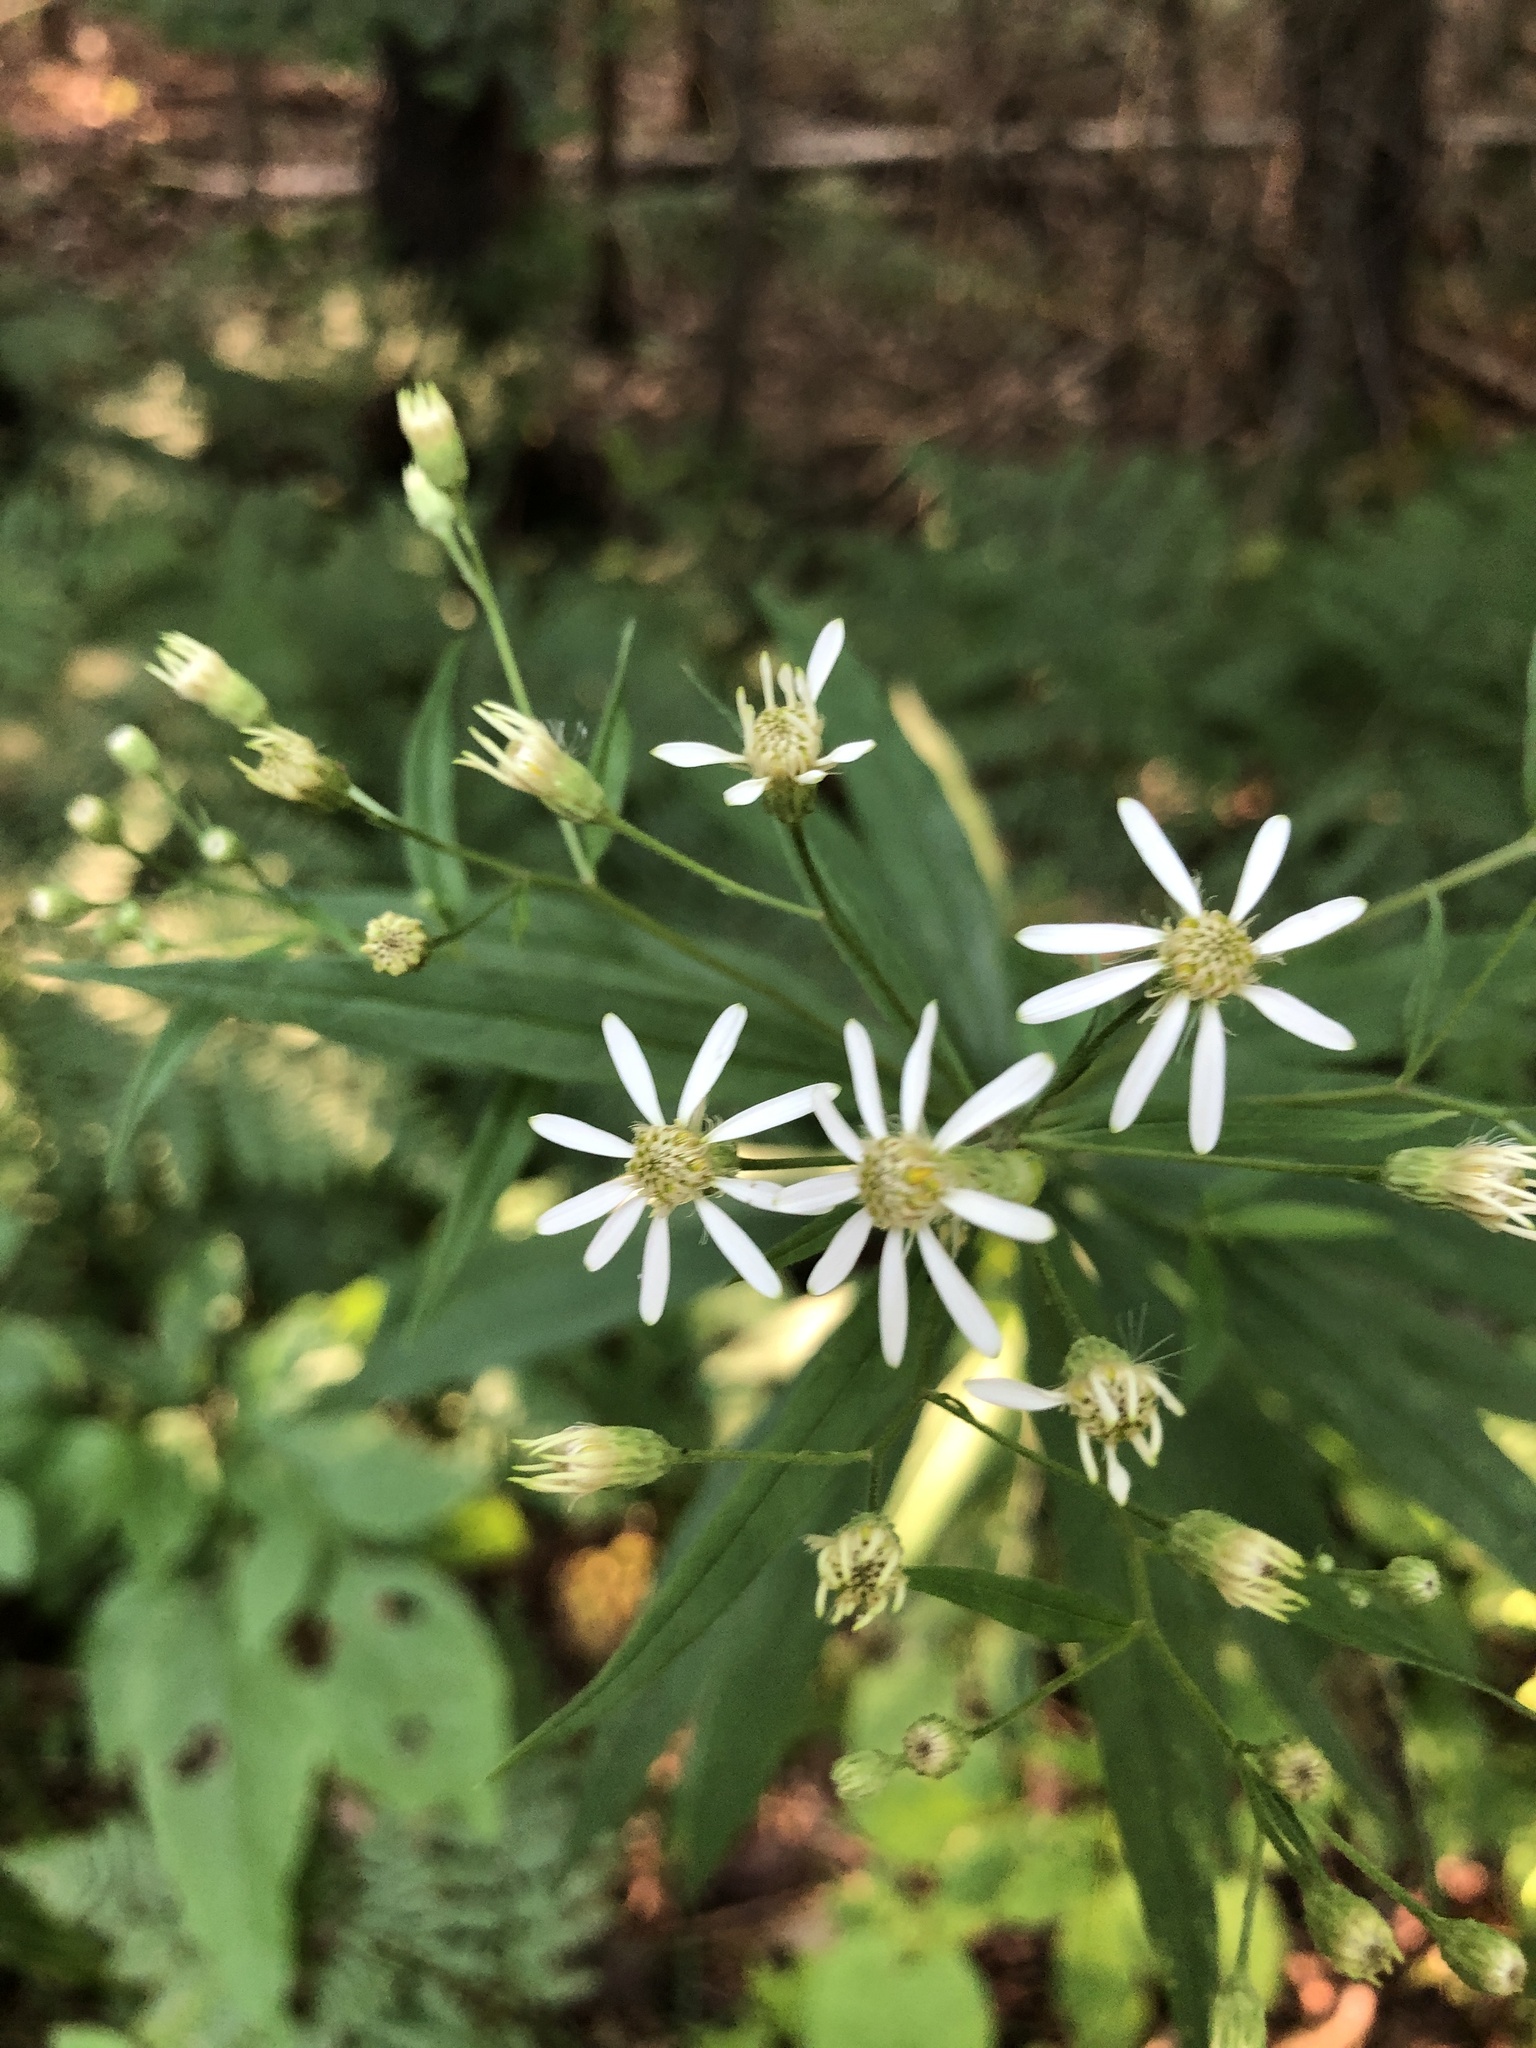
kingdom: Plantae
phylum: Tracheophyta
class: Magnoliopsida
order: Asterales
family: Asteraceae
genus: Doellingeria
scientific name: Doellingeria umbellata
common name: Flat-top white aster
